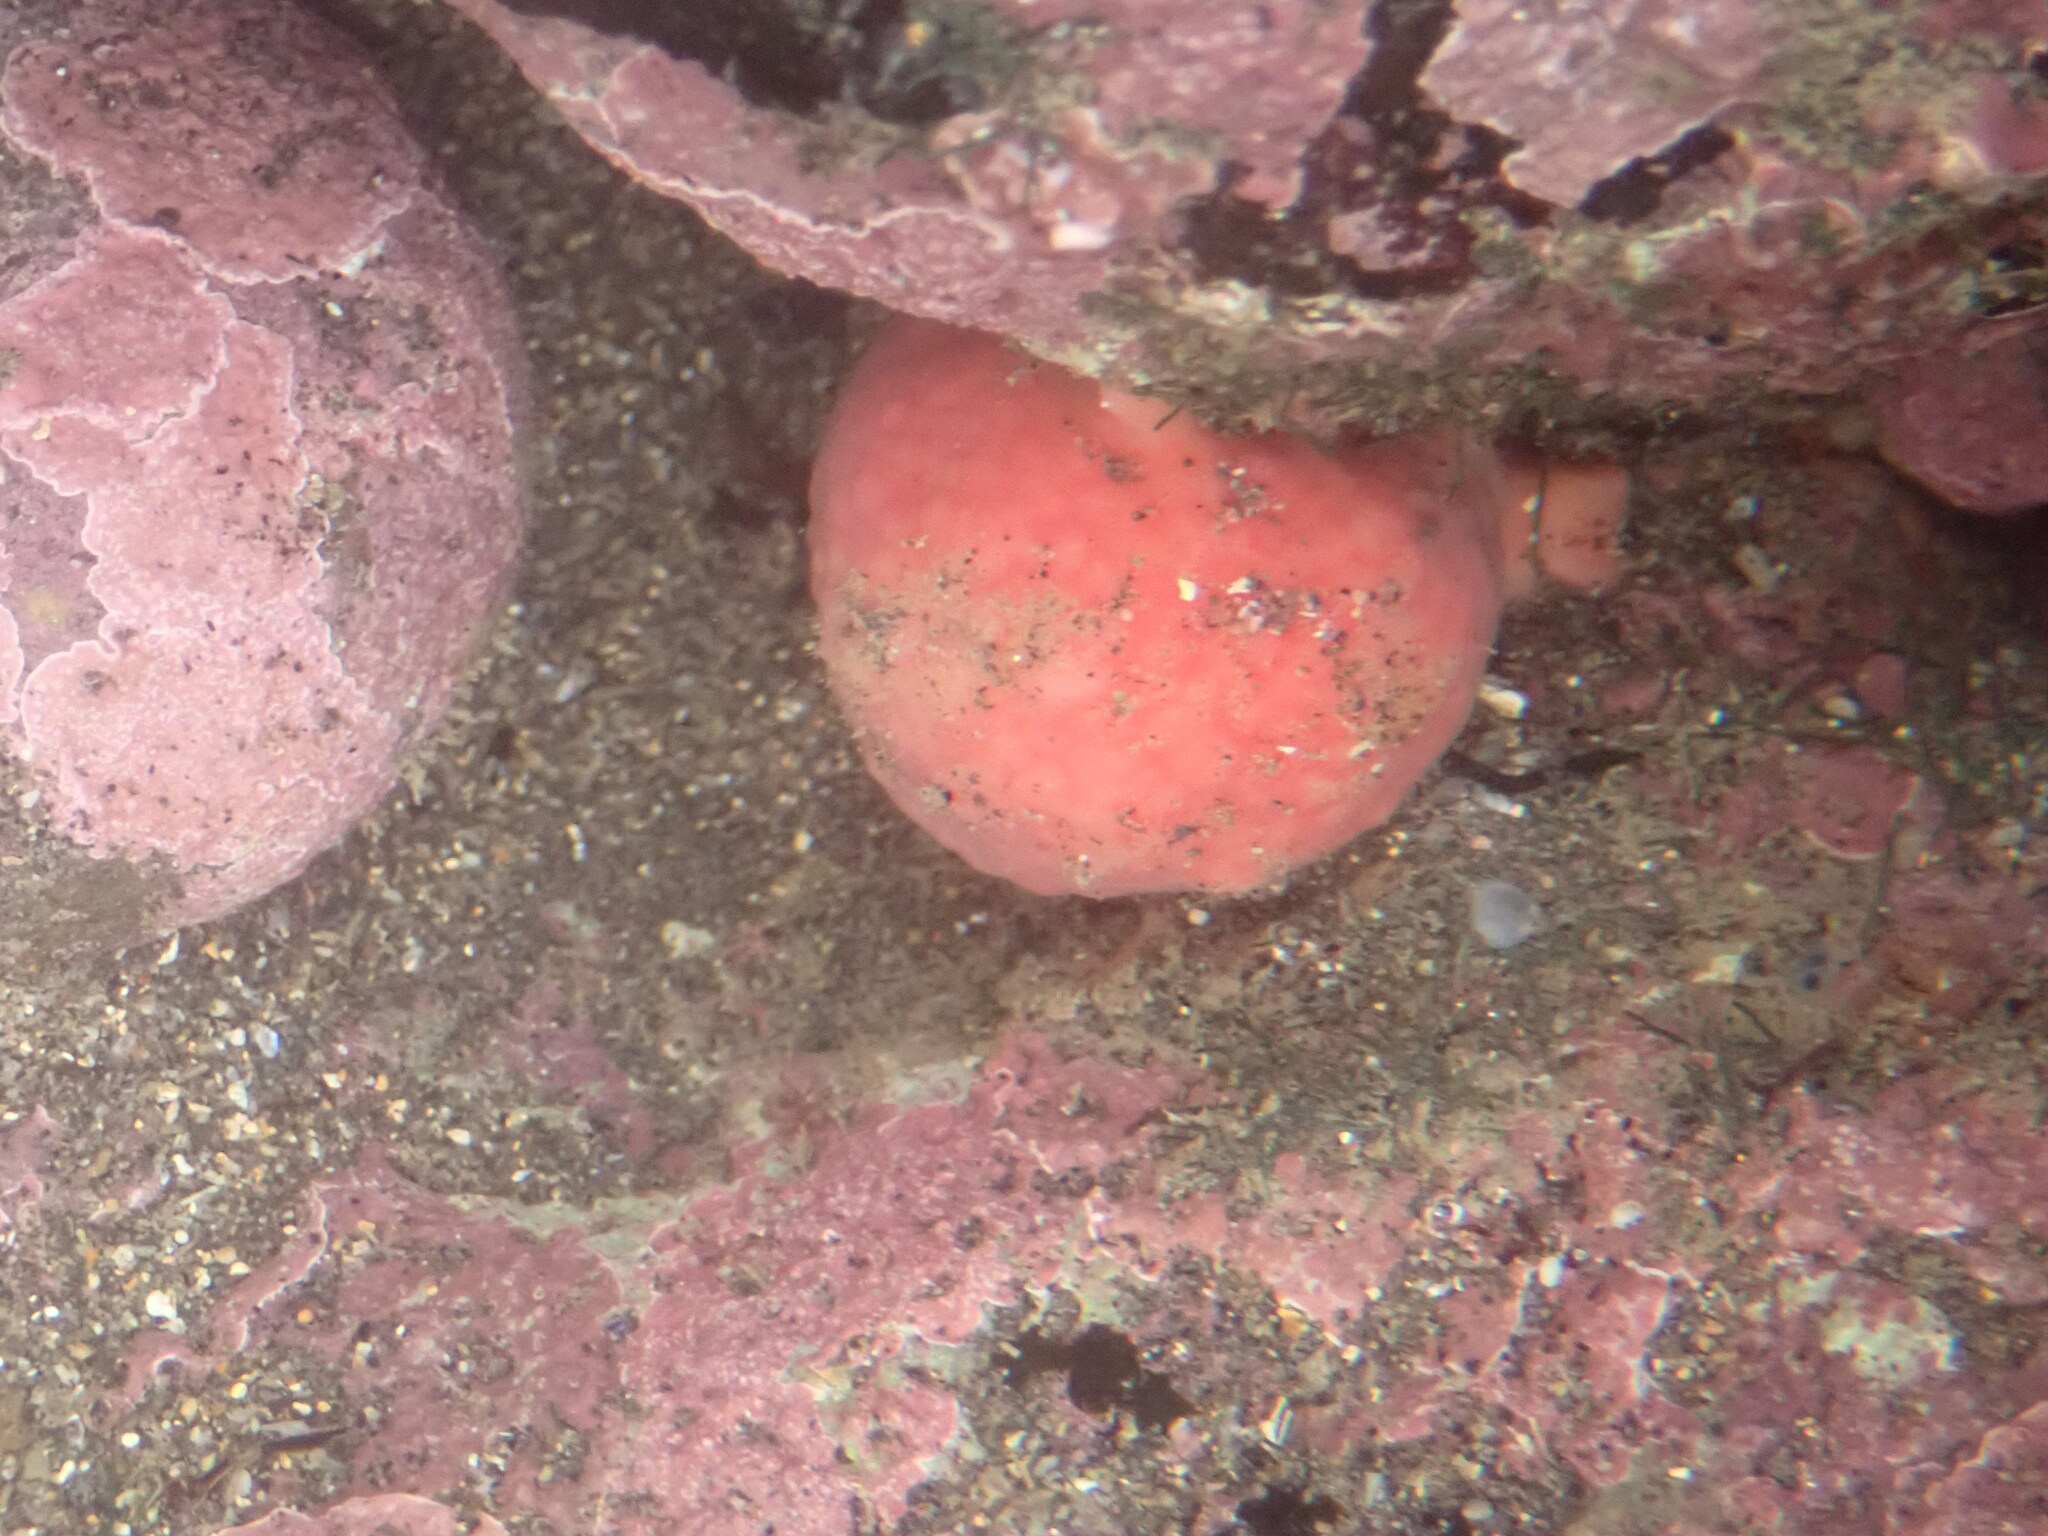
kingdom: Animalia
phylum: Porifera
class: Demospongiae
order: Tethyida
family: Tethyidae
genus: Tethya
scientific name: Tethya bergquistae
